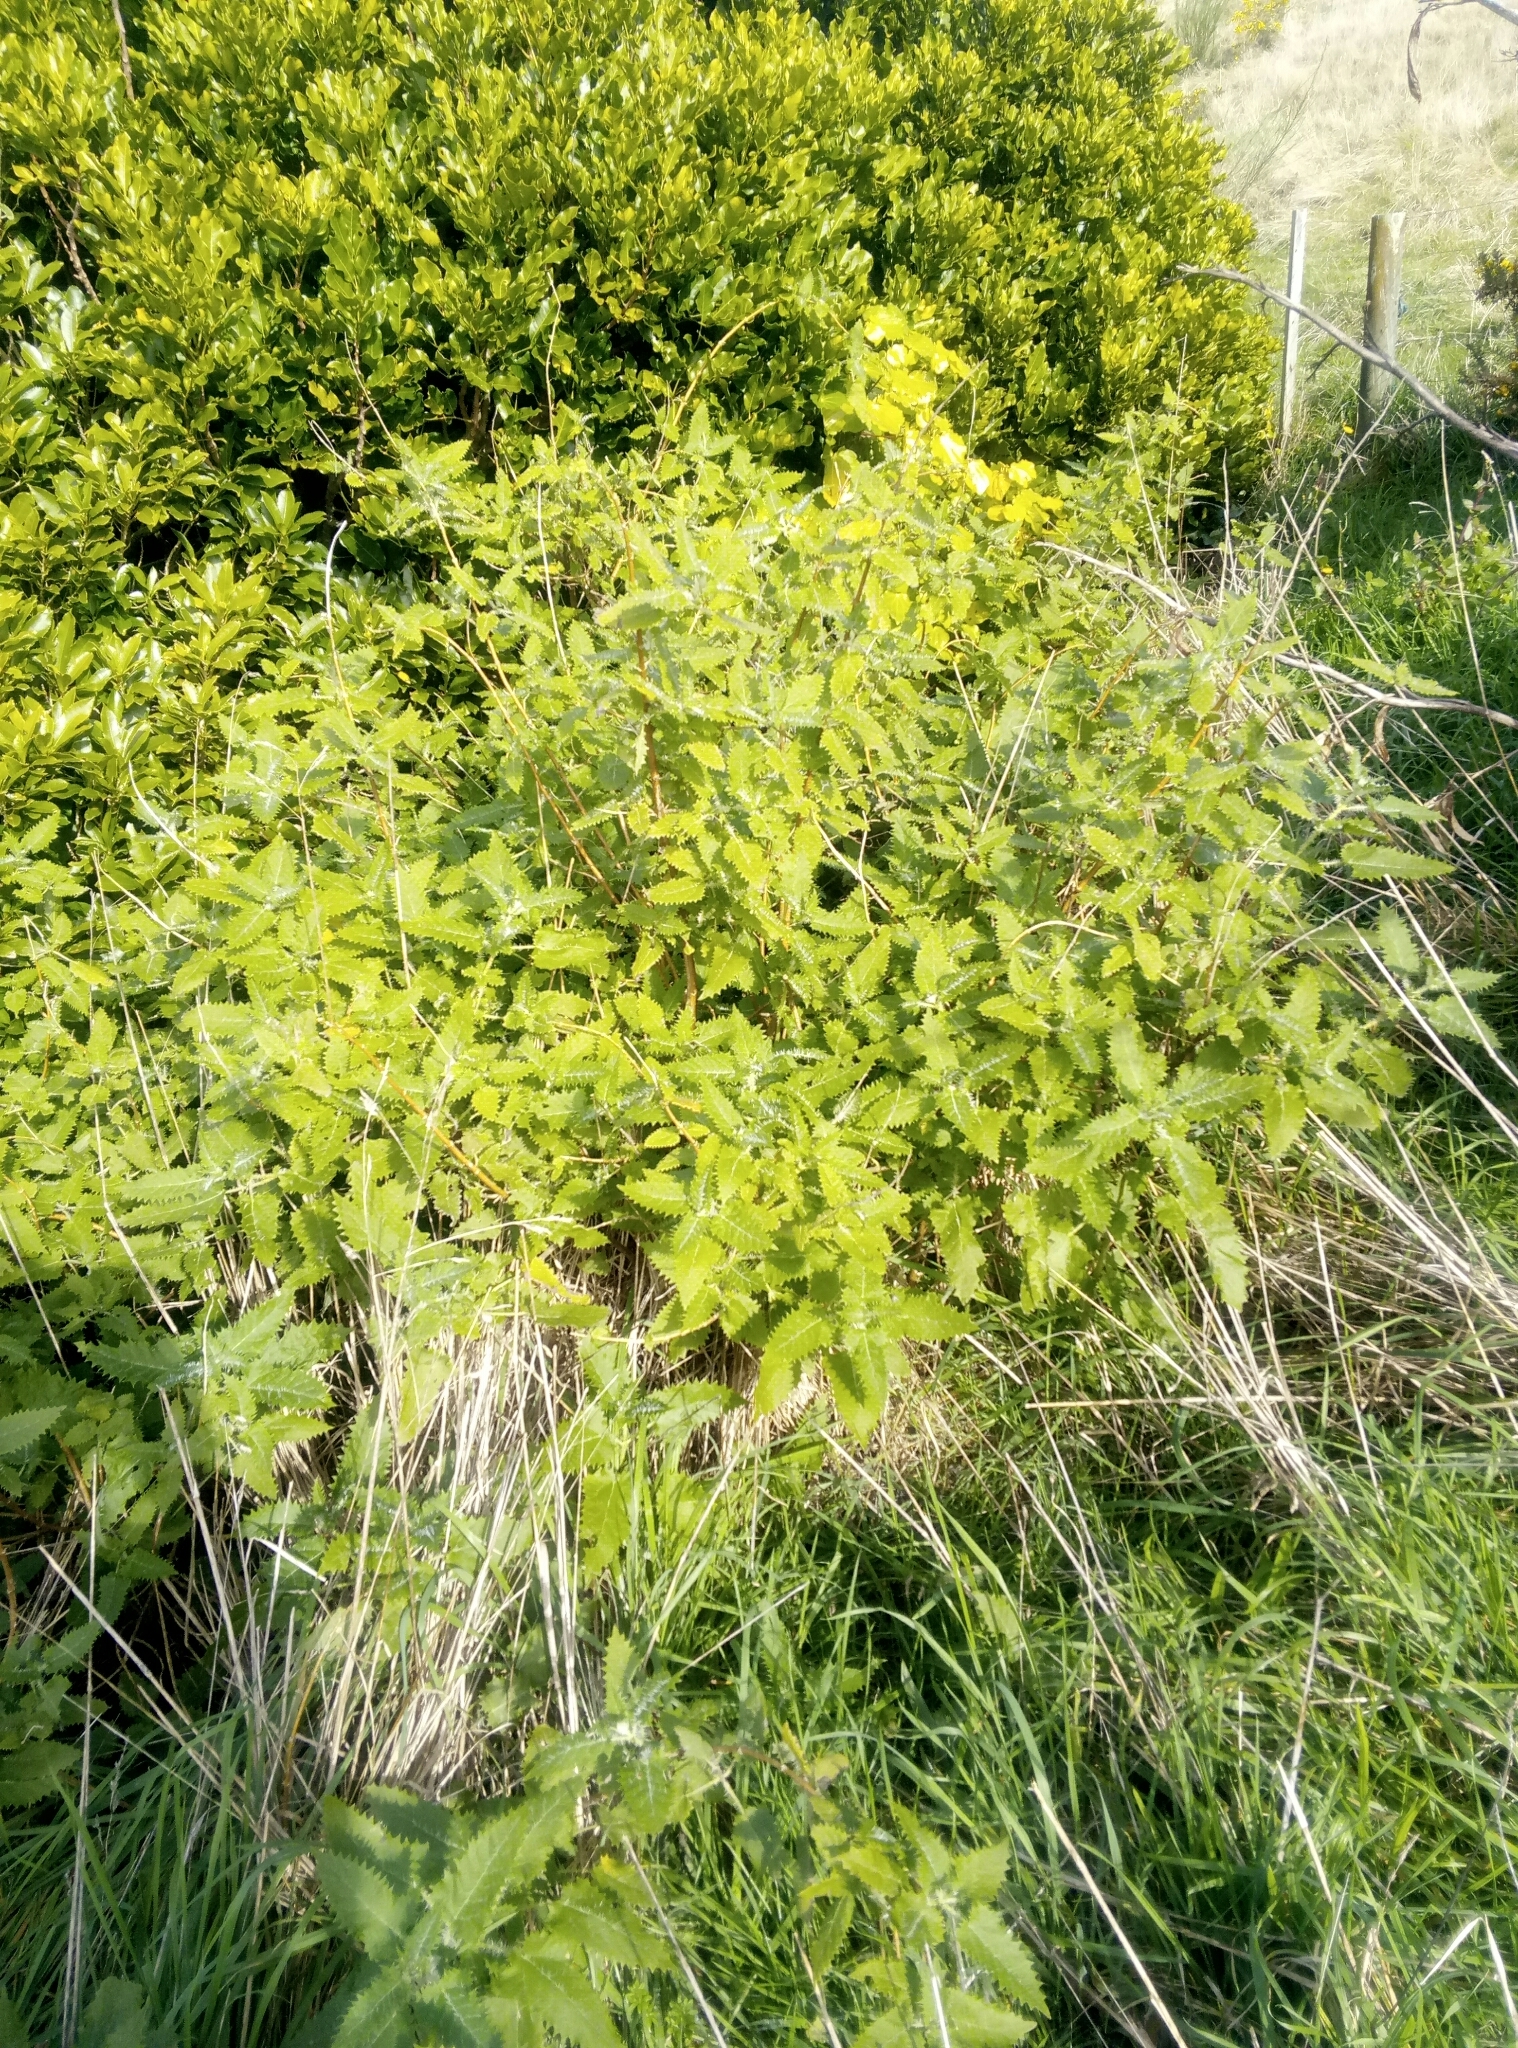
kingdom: Plantae
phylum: Tracheophyta
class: Magnoliopsida
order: Rosales
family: Urticaceae
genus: Urtica
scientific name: Urtica ferox
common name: Tree nettle
